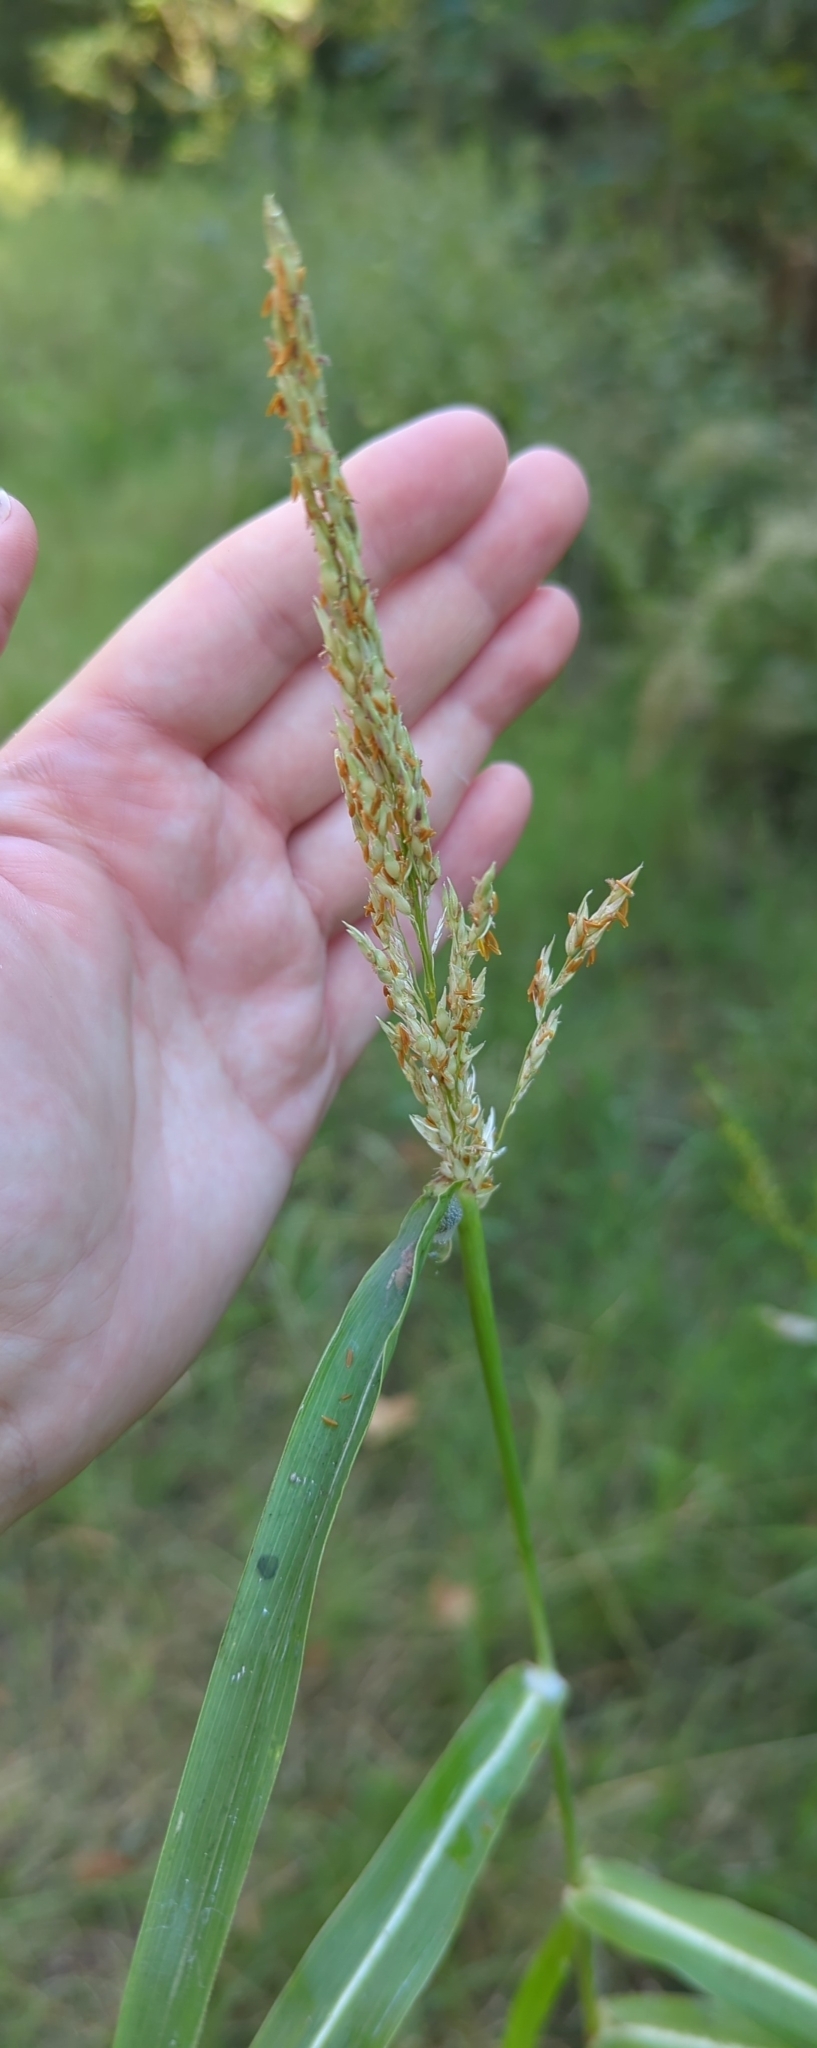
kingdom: Plantae
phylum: Tracheophyta
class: Liliopsida
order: Poales
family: Poaceae
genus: Sorghum
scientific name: Sorghum halepense
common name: Johnson-grass
